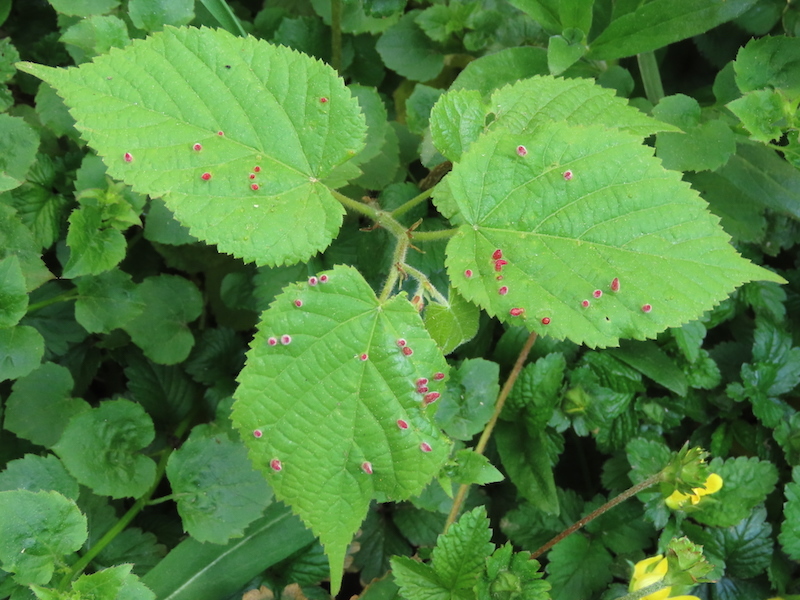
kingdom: Animalia
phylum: Arthropoda
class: Arachnida
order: Trombidiformes
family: Eriophyidae
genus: Eriophyes
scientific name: Eriophyes tiliae
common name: Red nail gall mite
